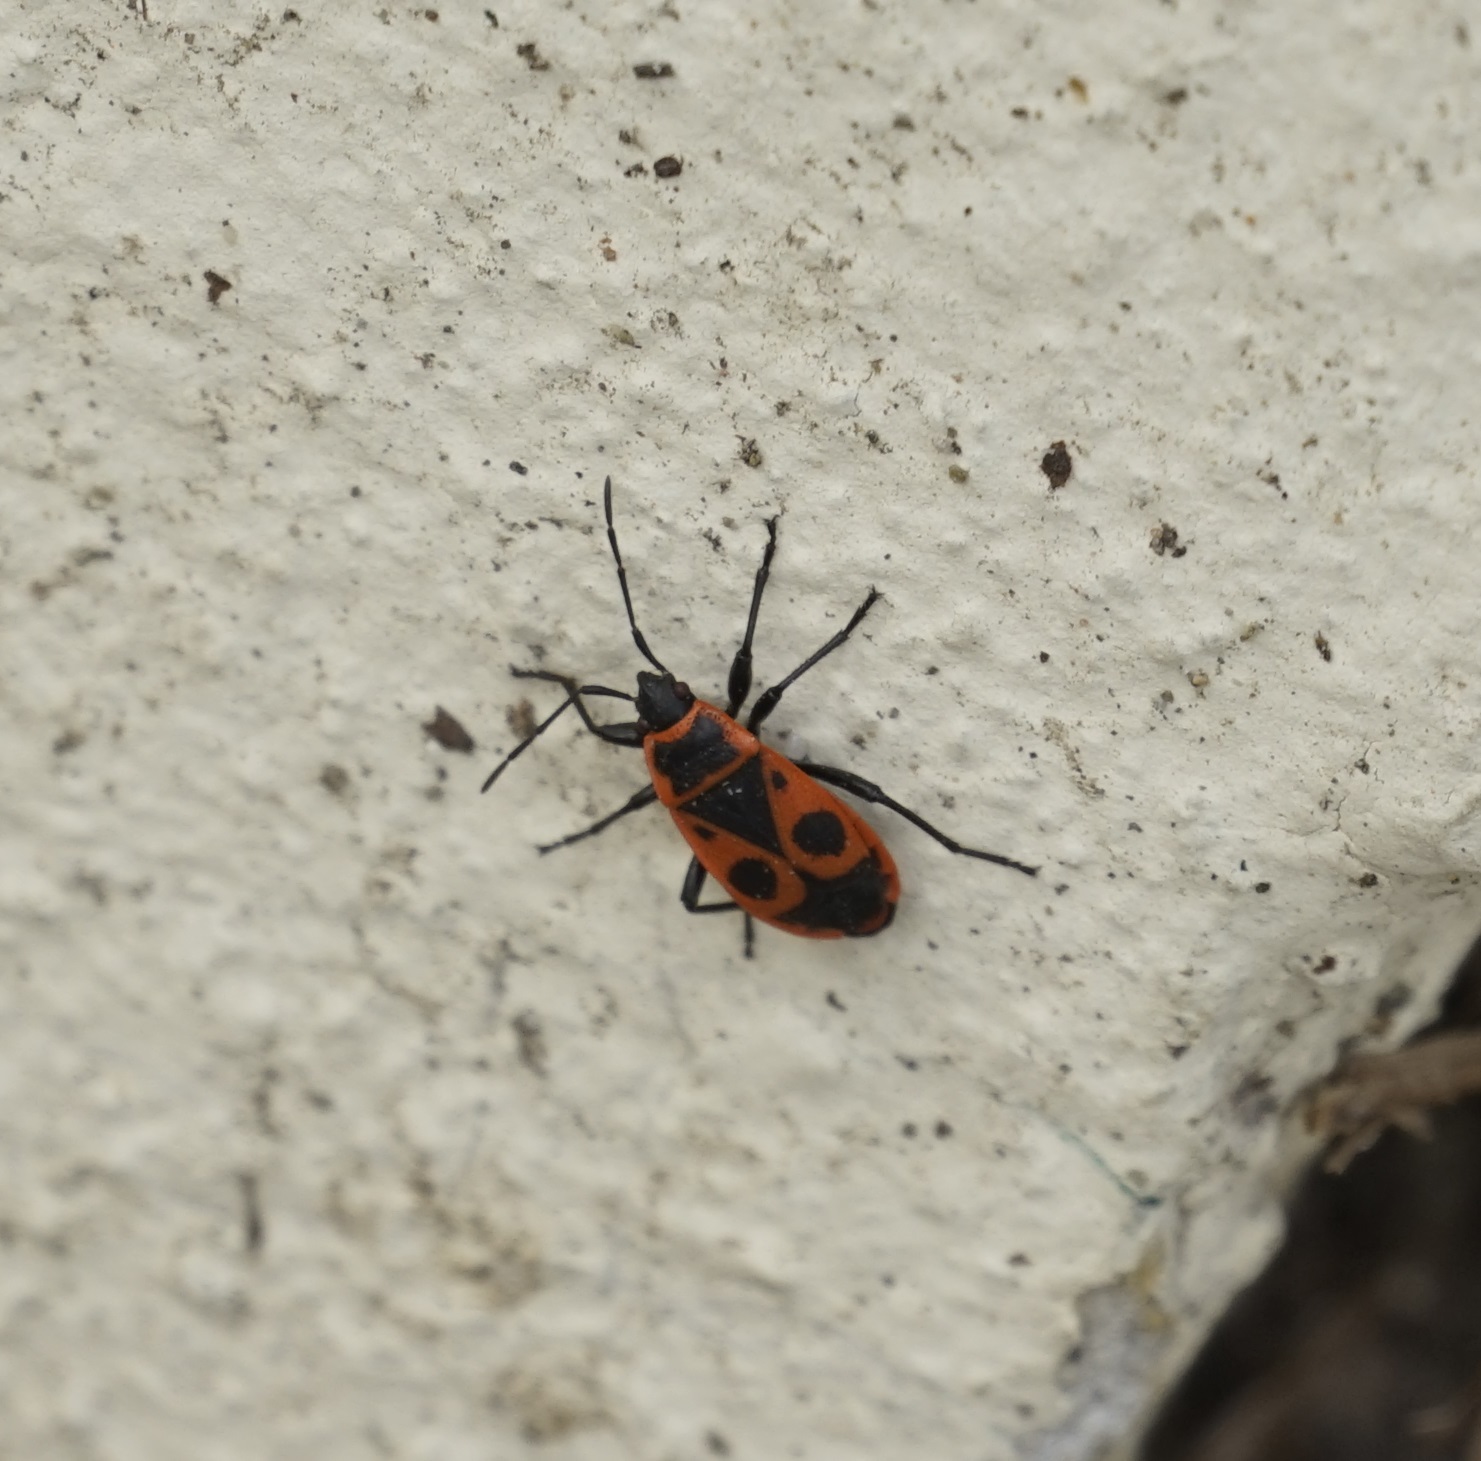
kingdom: Animalia
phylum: Arthropoda
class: Insecta
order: Hemiptera
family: Pyrrhocoridae
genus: Pyrrhocoris
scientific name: Pyrrhocoris apterus
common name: Firebug
